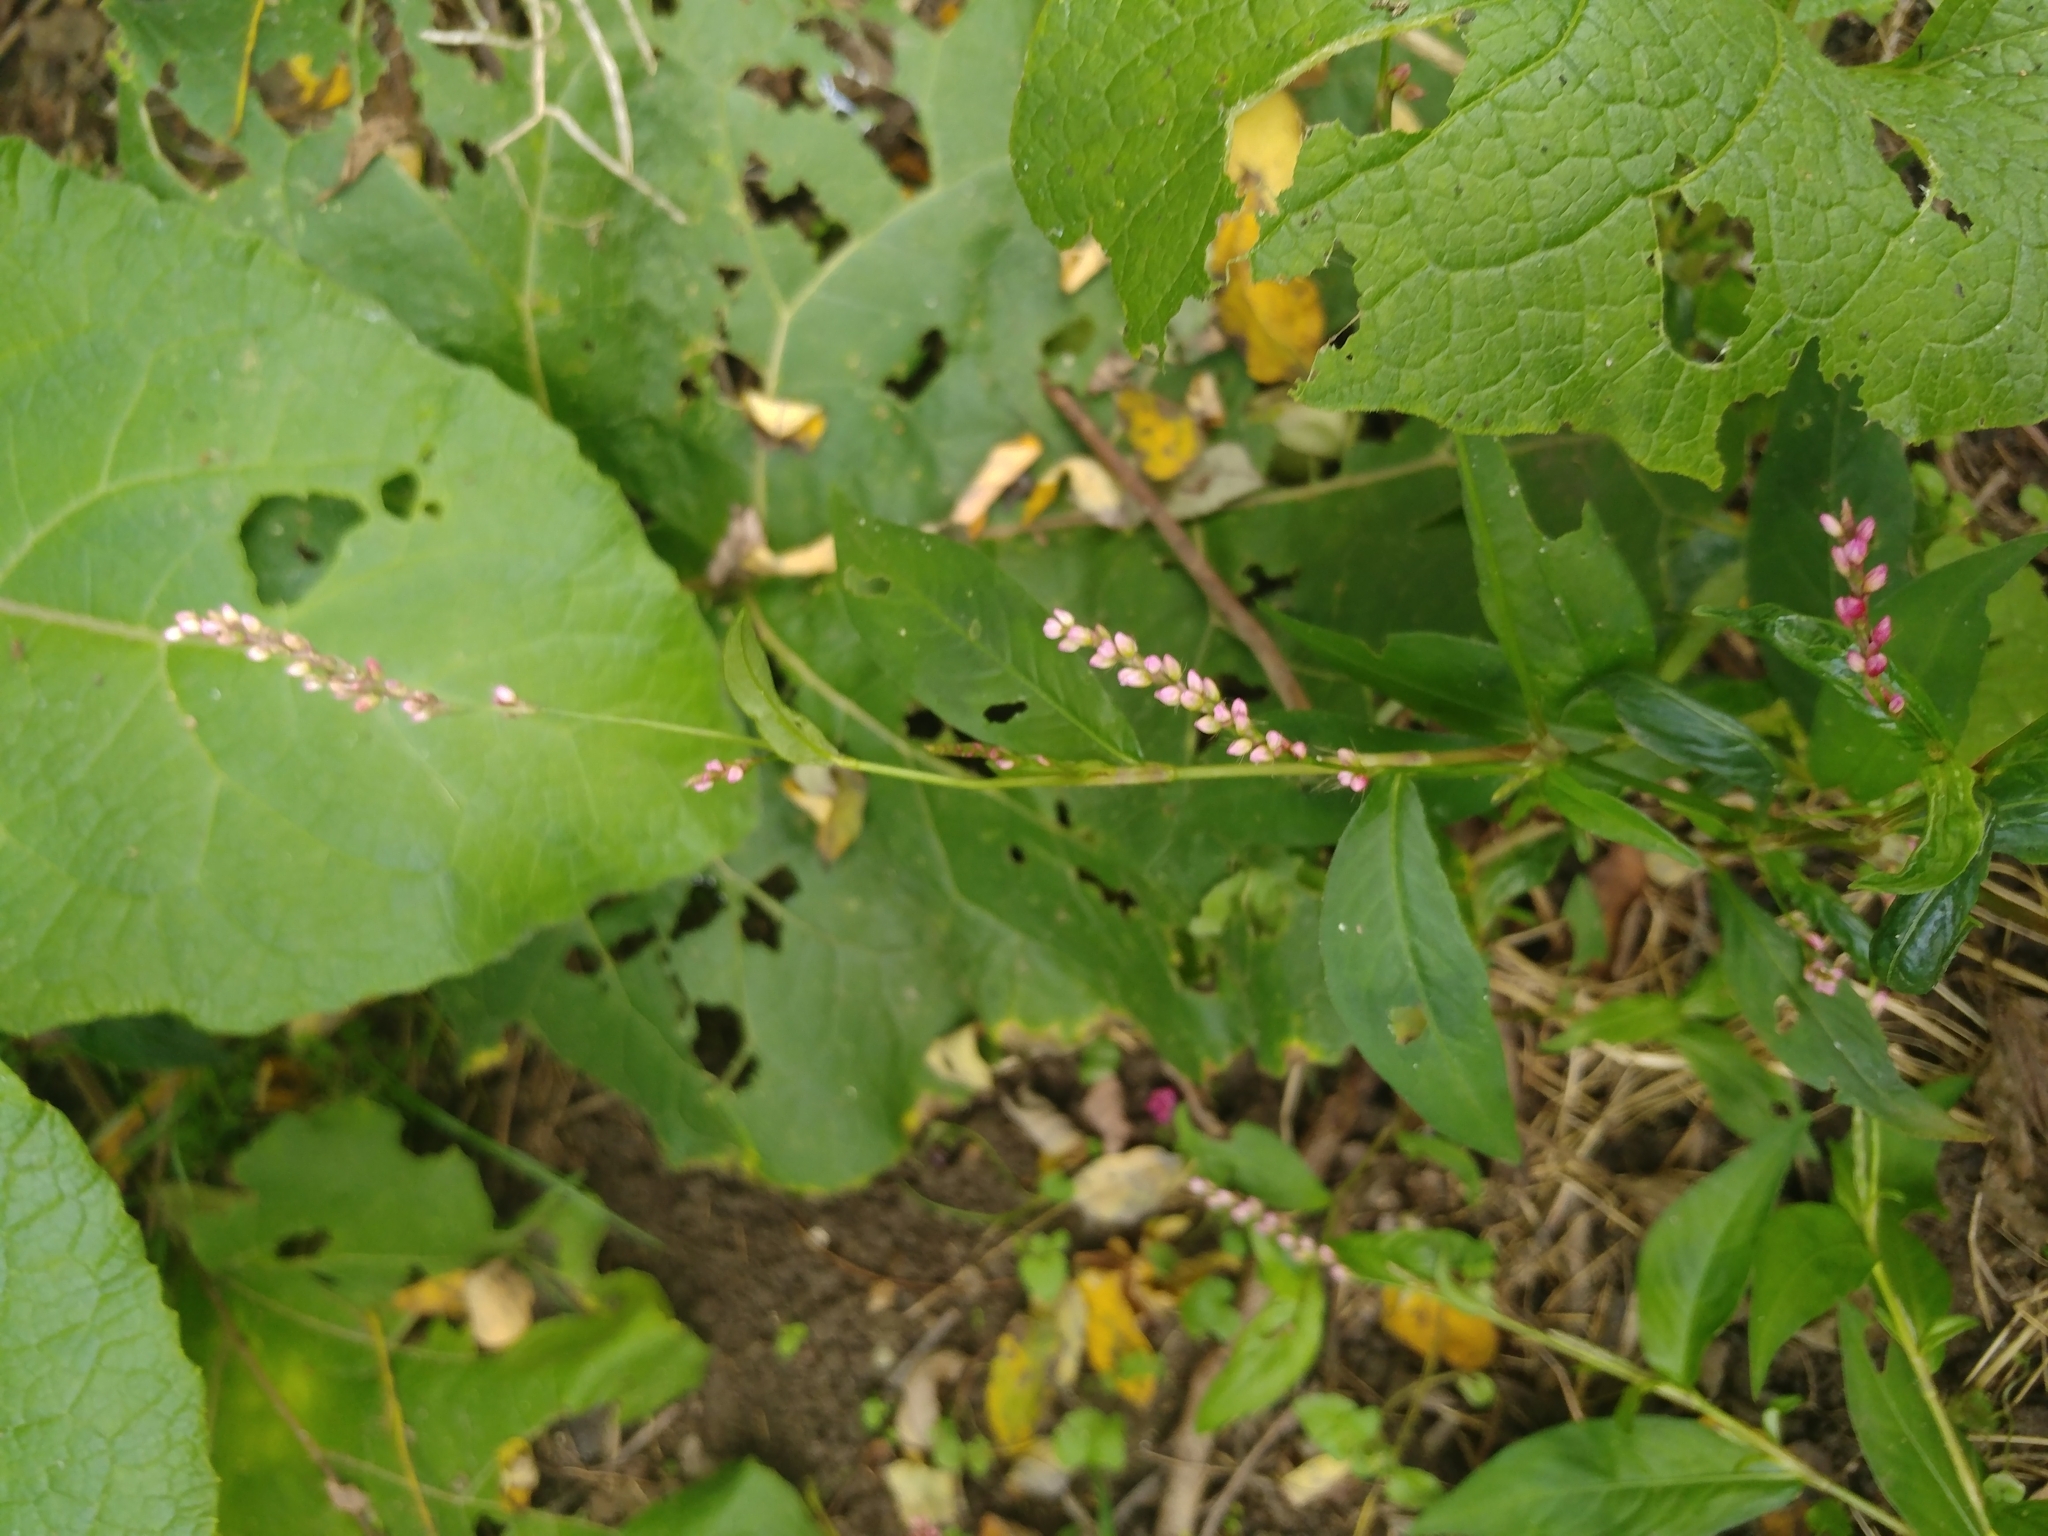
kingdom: Plantae
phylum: Tracheophyta
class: Magnoliopsida
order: Caryophyllales
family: Polygonaceae
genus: Persicaria
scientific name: Persicaria longiseta
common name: Bristly lady's-thumb
